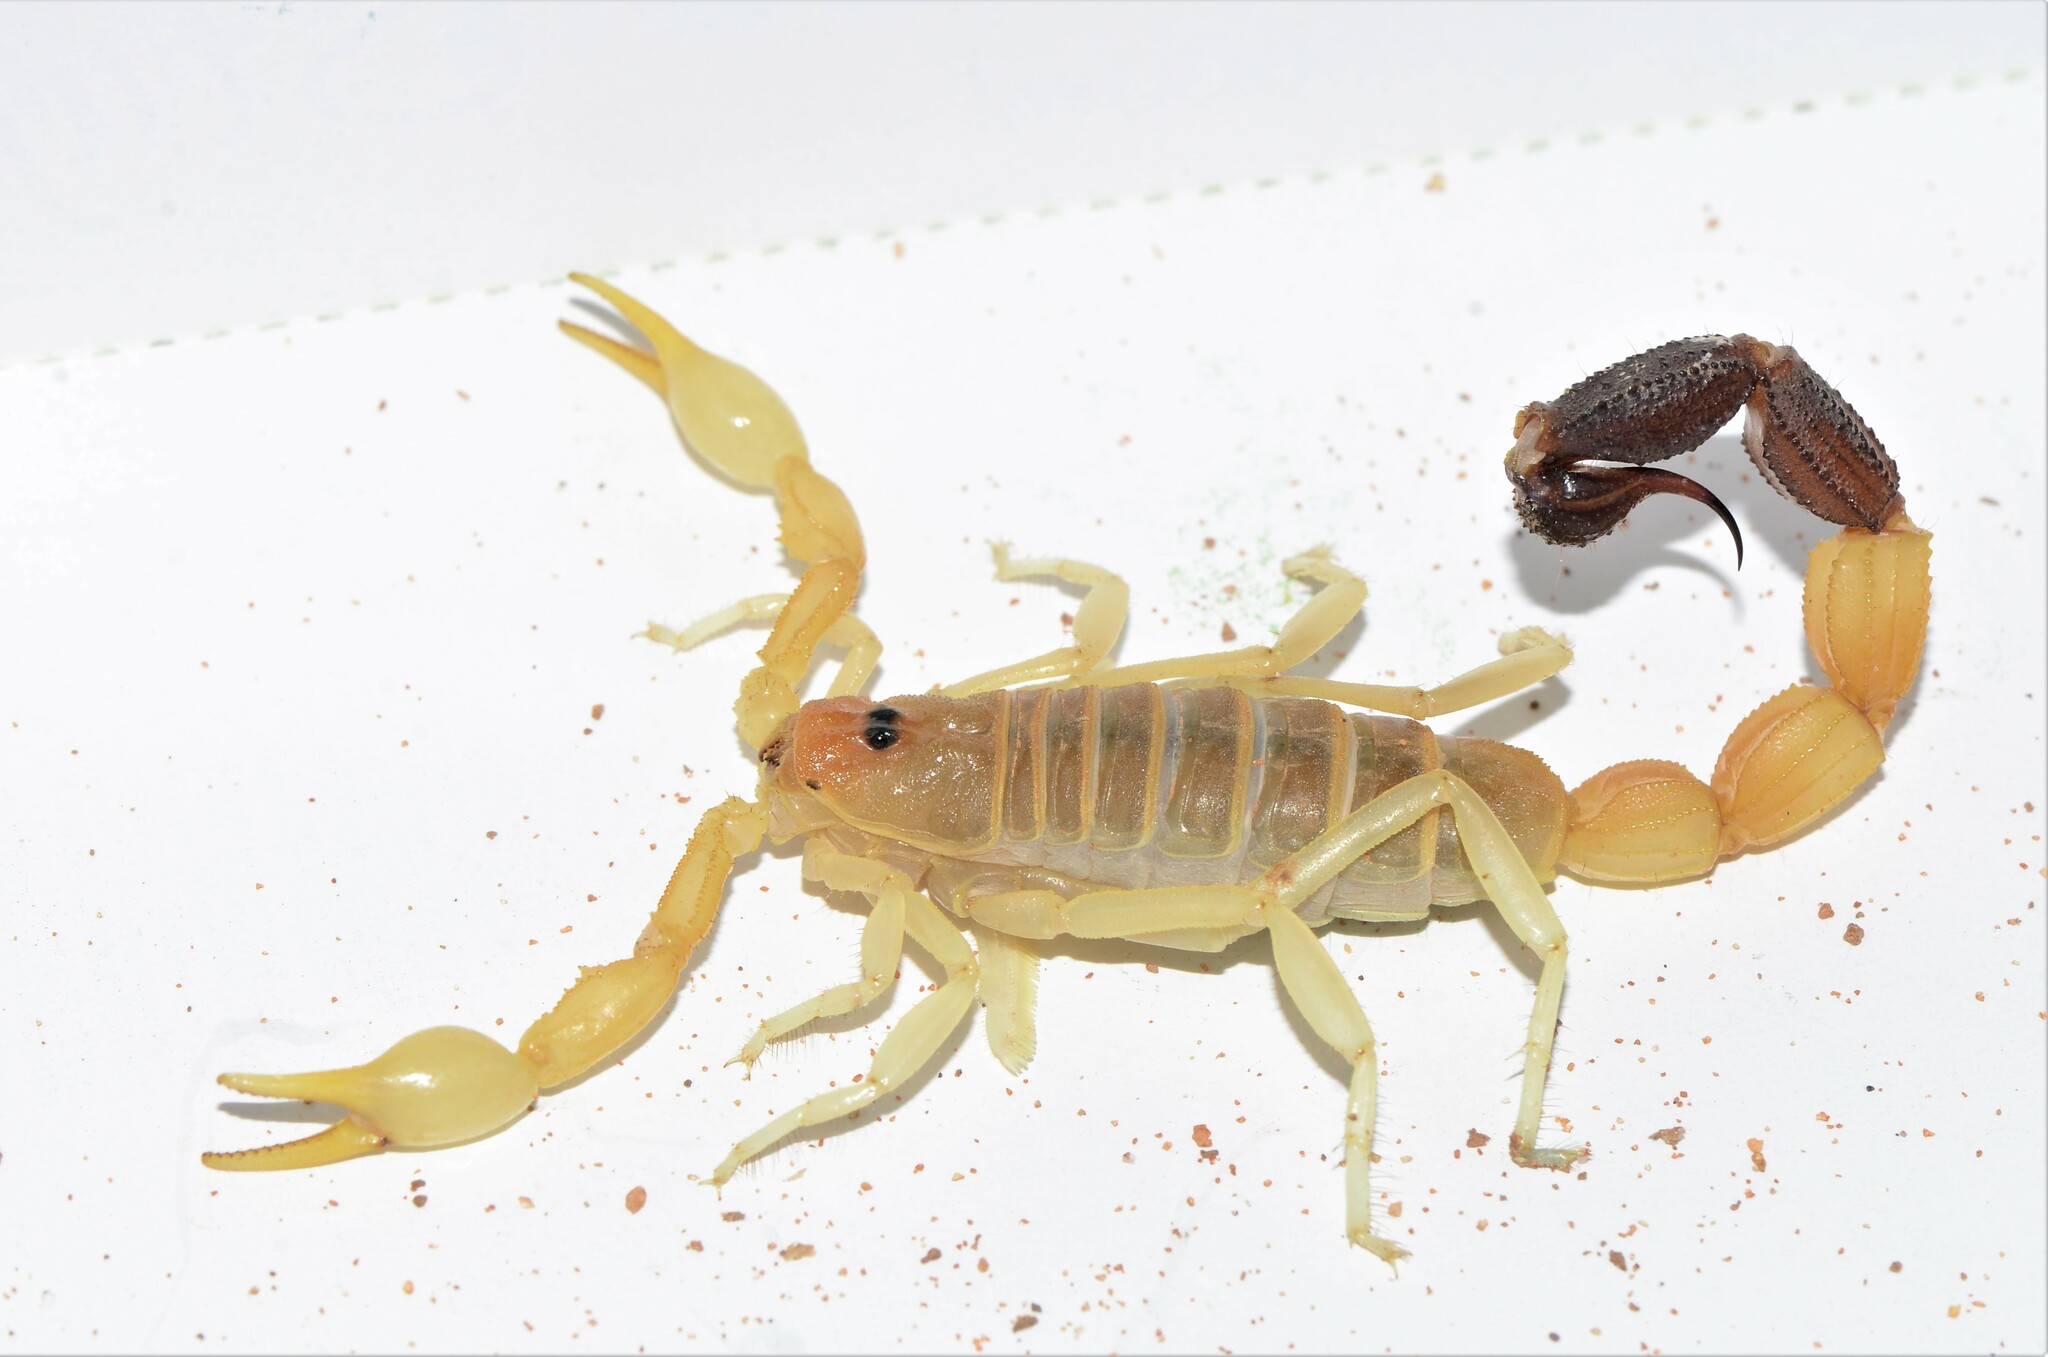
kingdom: Animalia
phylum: Arthropoda
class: Arachnida
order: Scorpiones
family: Buthidae
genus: Parabuthus
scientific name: Parabuthus laevifrons
